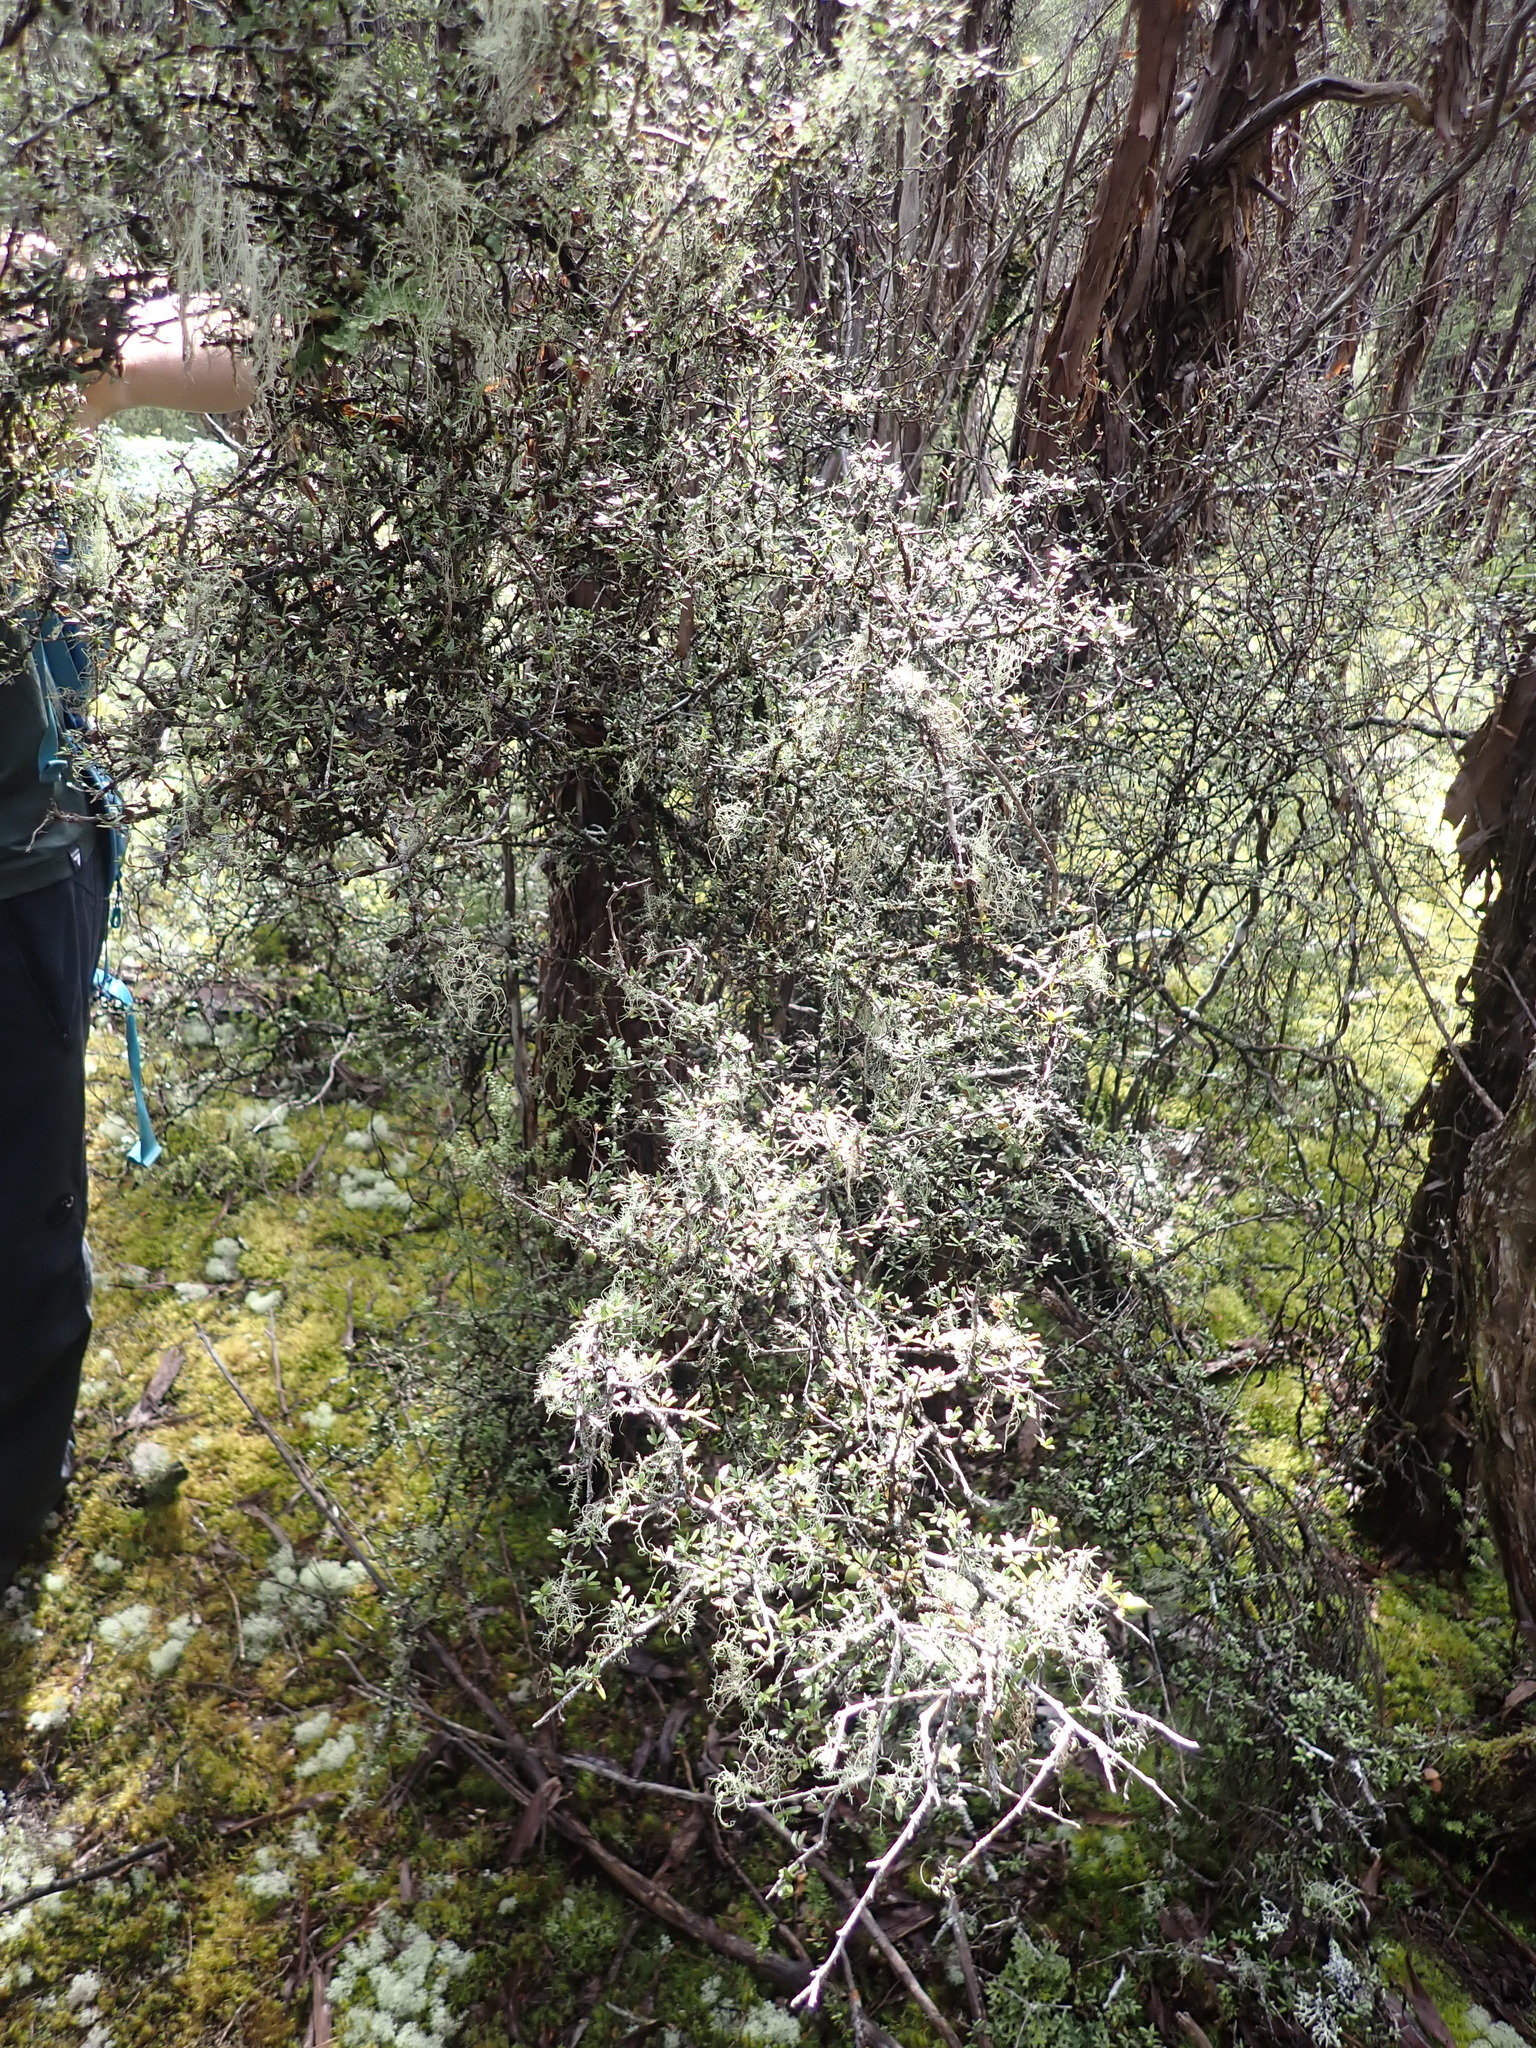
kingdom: Plantae
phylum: Tracheophyta
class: Magnoliopsida
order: Apiales
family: Pittosporaceae
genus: Pittosporum
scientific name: Pittosporum divaricatum
